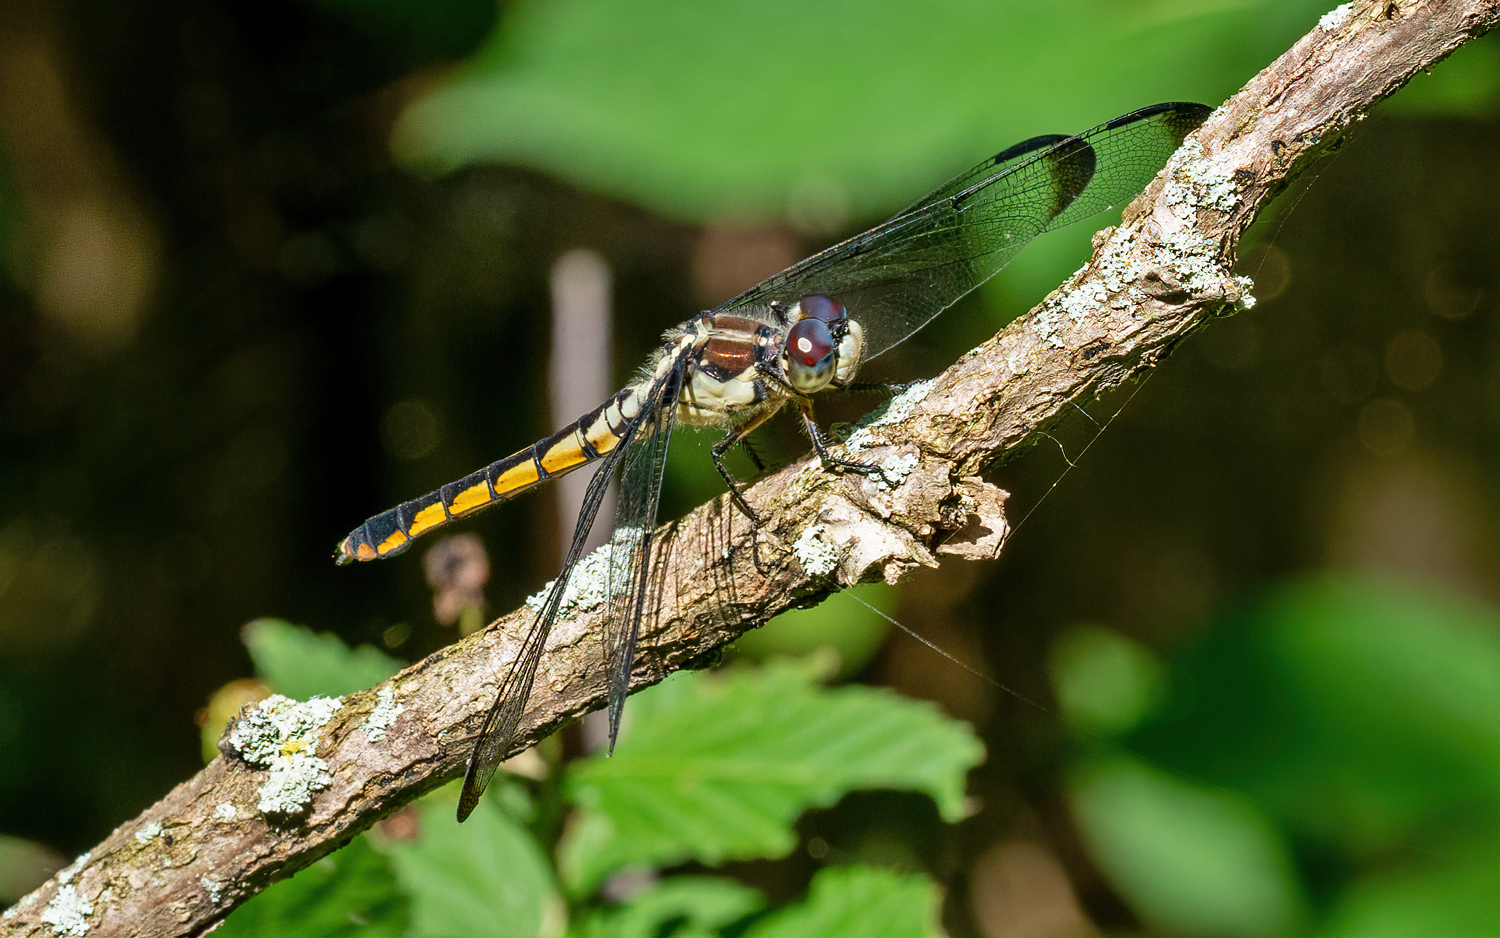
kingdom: Animalia
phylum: Arthropoda
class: Insecta
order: Odonata
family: Libellulidae
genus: Libellula
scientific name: Libellula vibrans
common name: Great blue skimmer
